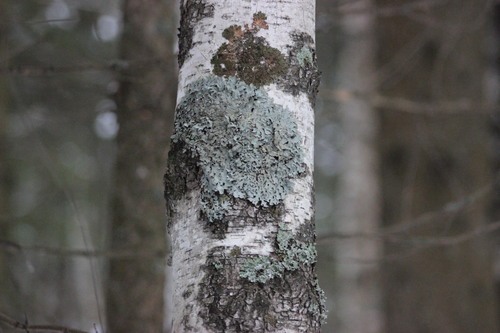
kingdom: Fungi
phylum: Ascomycota
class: Lecanoromycetes
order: Lecanorales
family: Parmeliaceae
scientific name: Parmeliaceae
